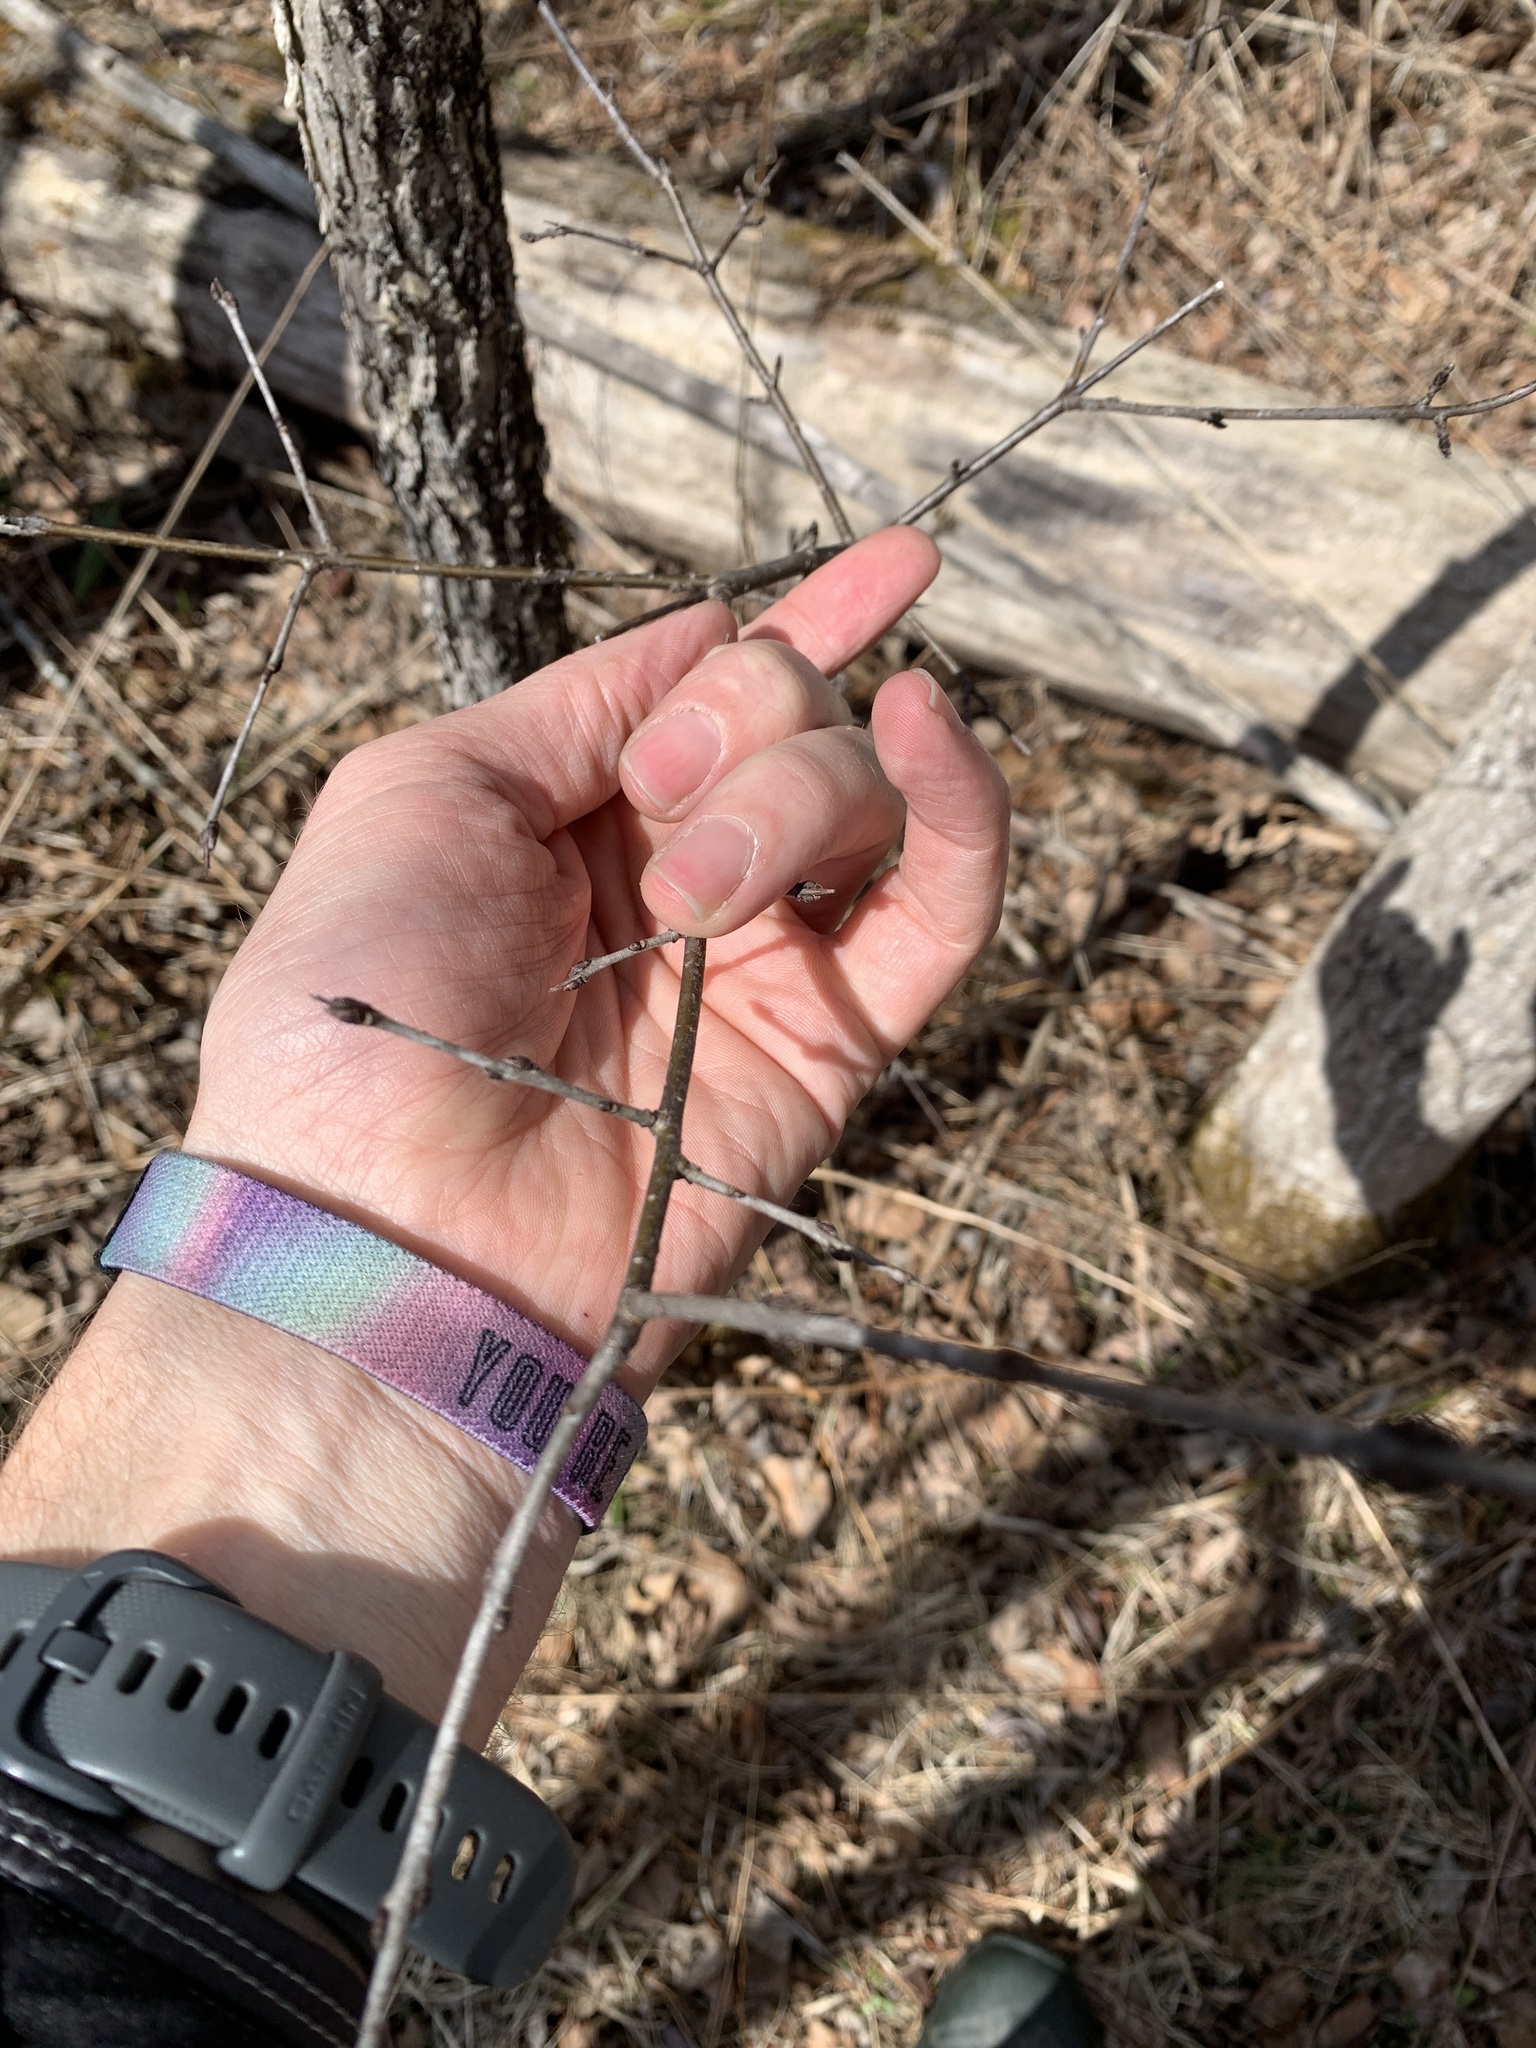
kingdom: Plantae
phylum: Tracheophyta
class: Magnoliopsida
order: Rosales
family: Rhamnaceae
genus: Rhamnus
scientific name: Rhamnus cathartica
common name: Common buckthorn
